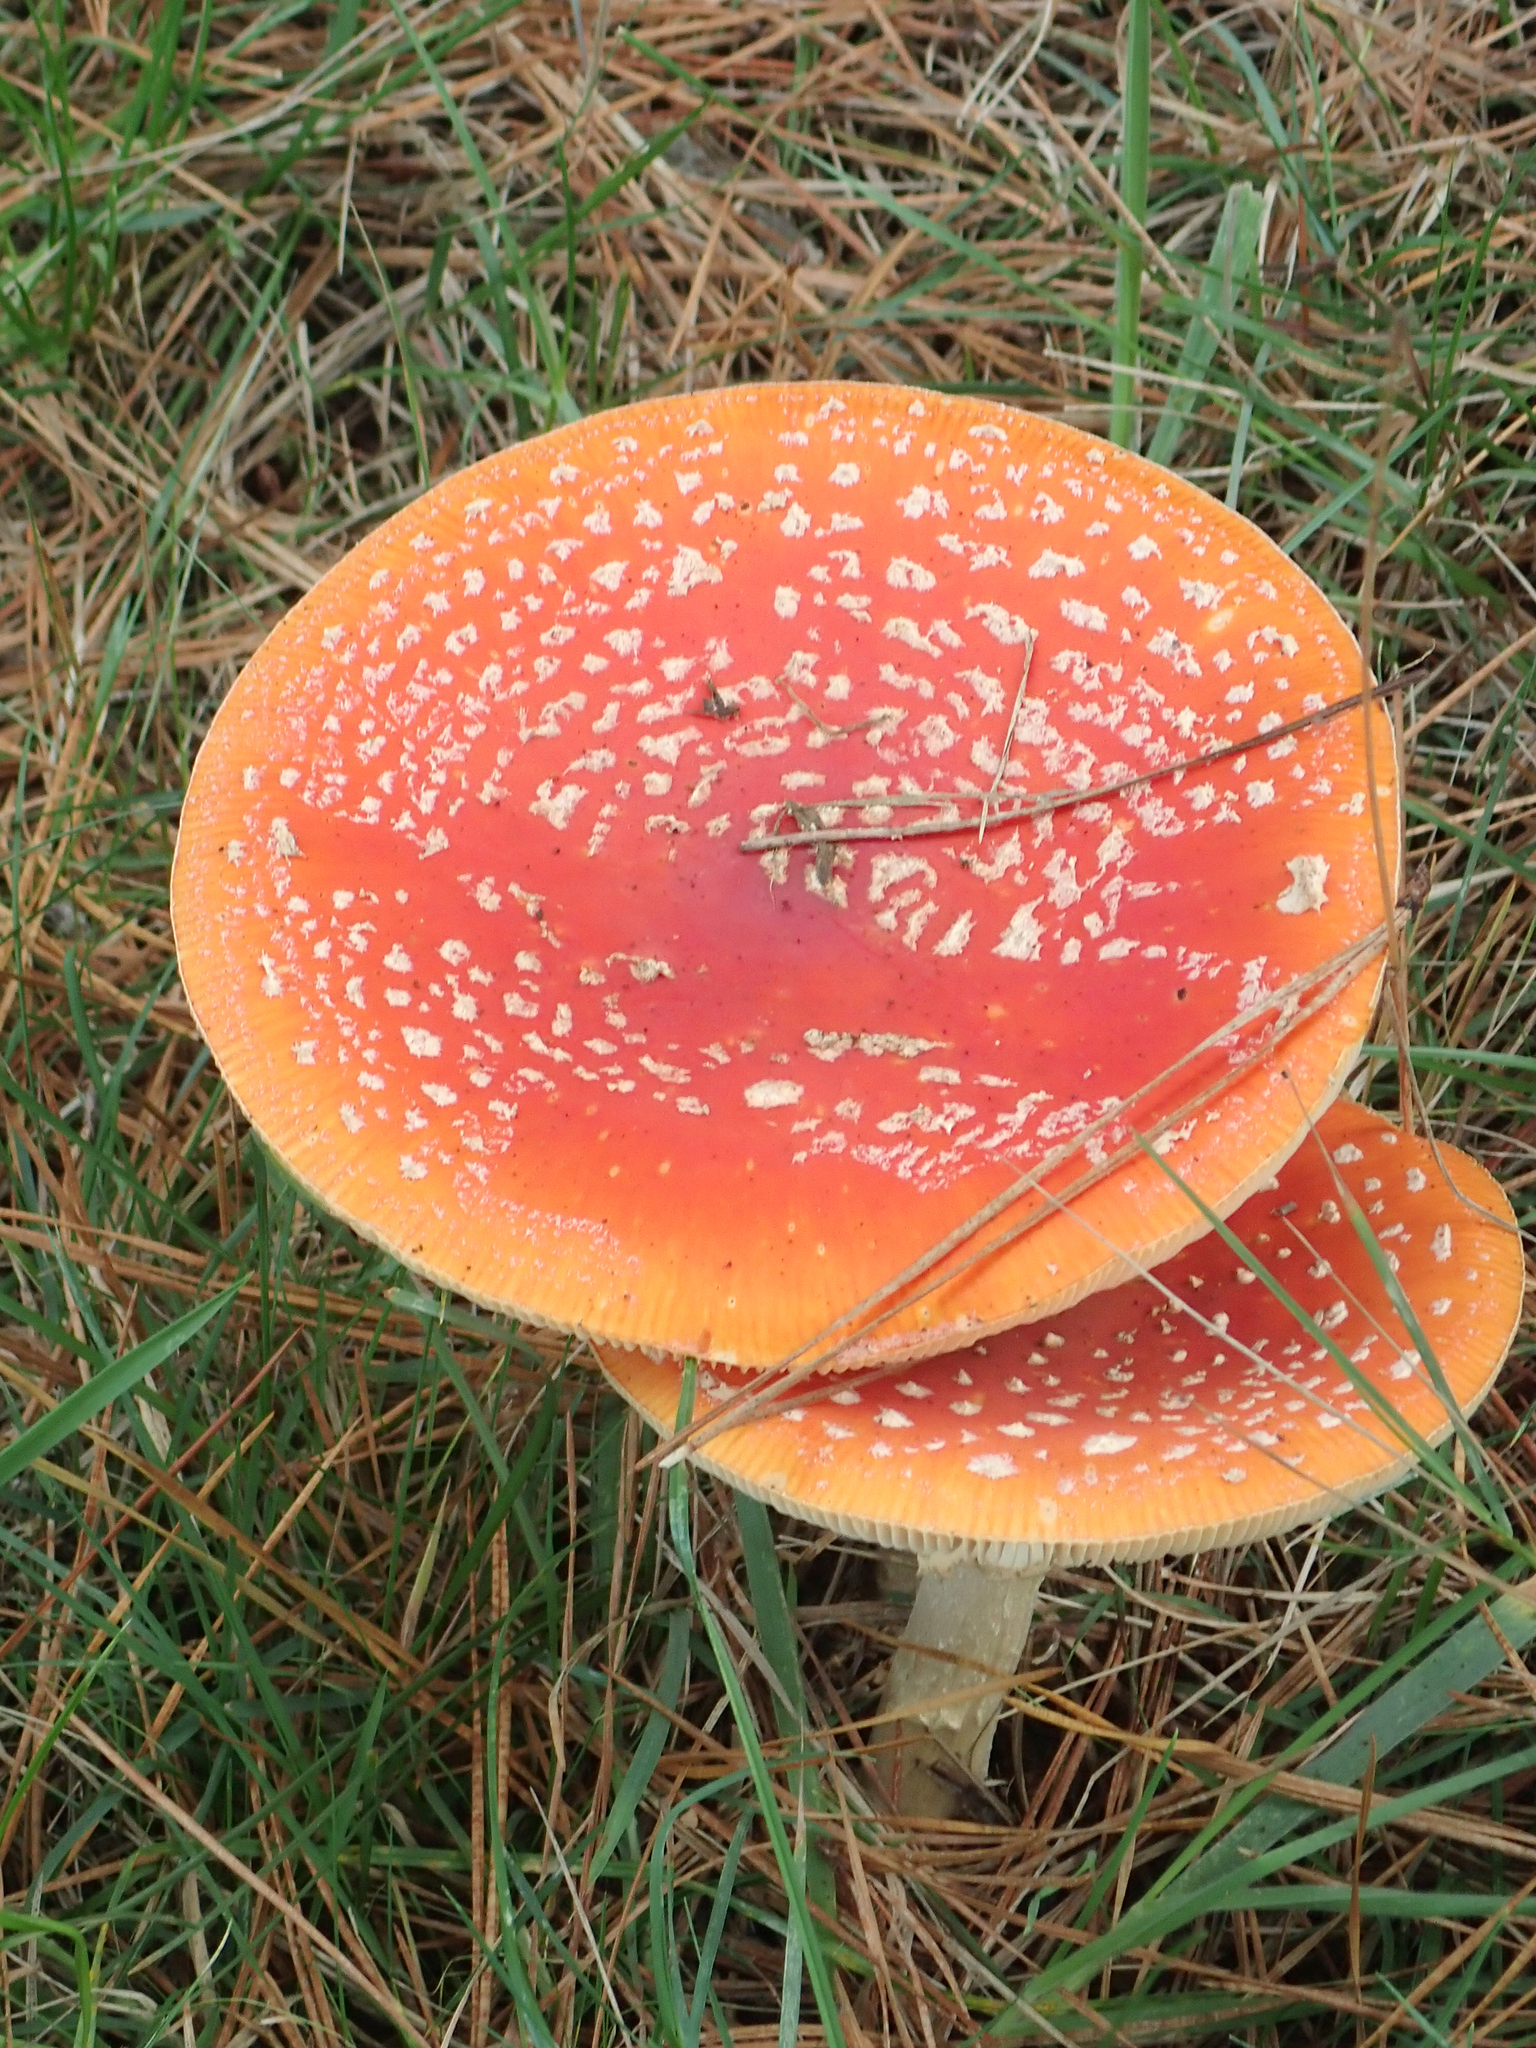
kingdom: Fungi
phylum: Basidiomycota
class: Agaricomycetes
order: Agaricales
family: Amanitaceae
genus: Amanita
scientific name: Amanita muscaria
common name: Fly agaric
